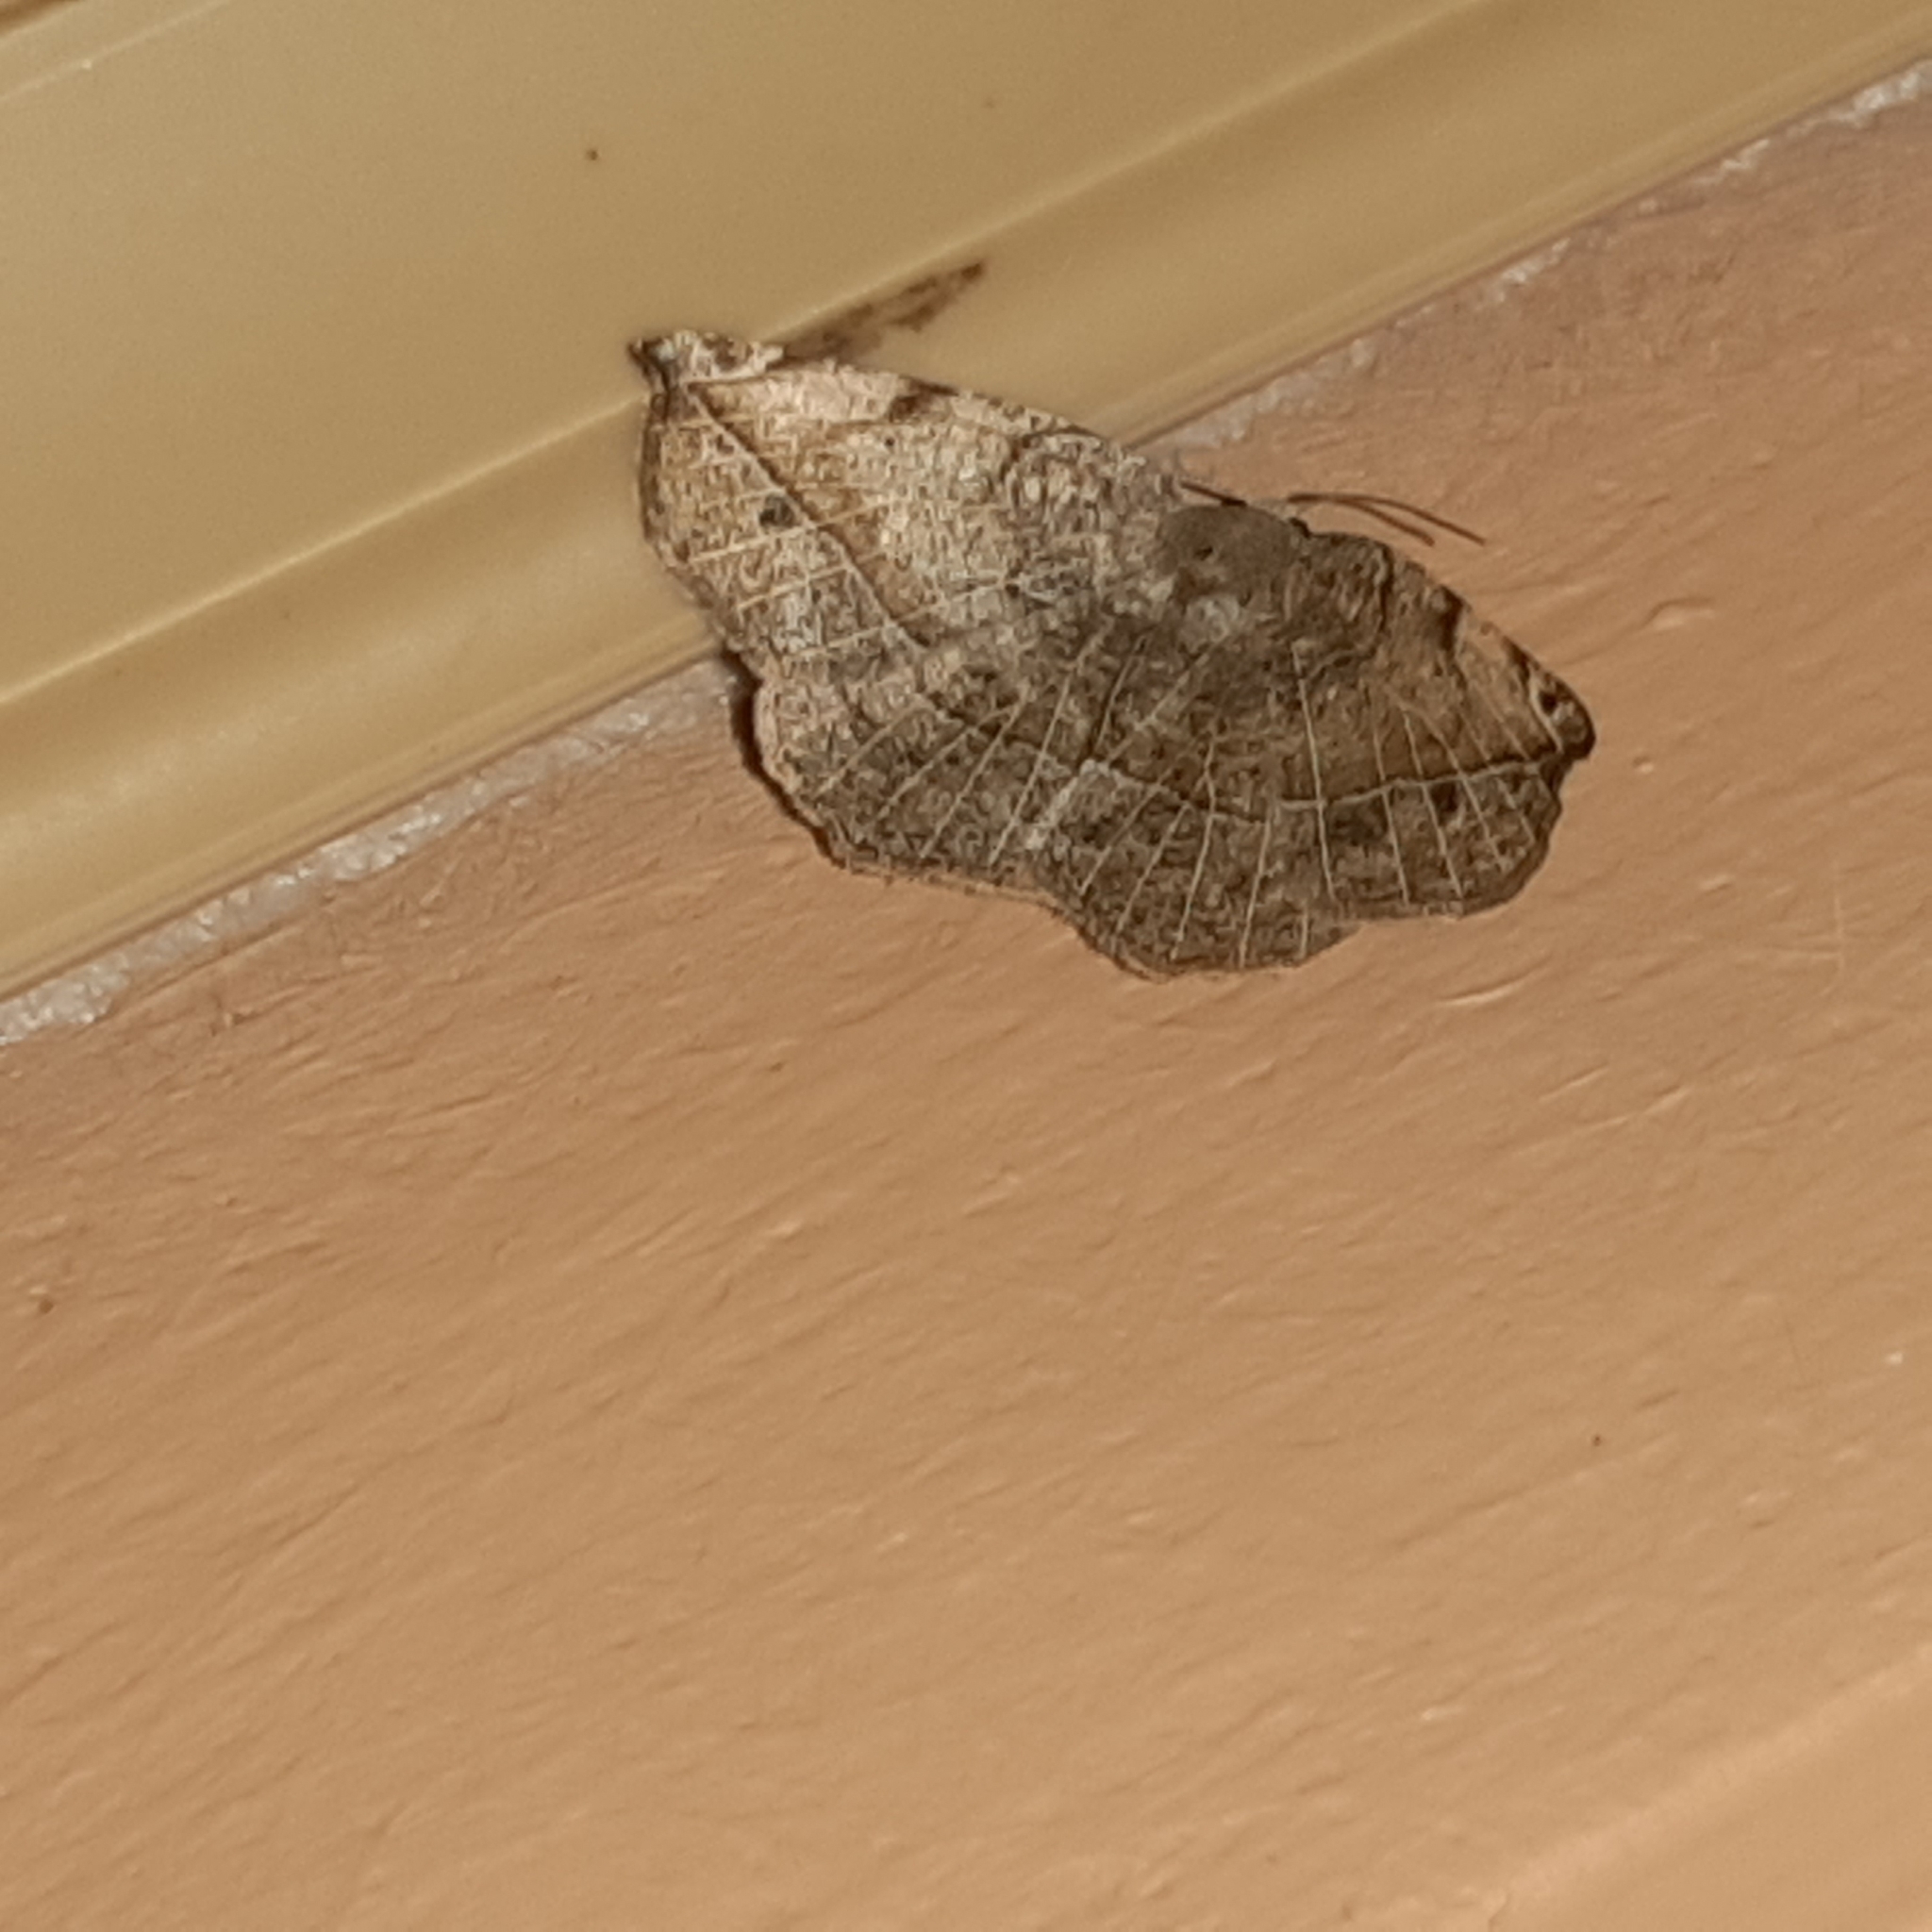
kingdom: Animalia
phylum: Arthropoda
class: Insecta
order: Lepidoptera
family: Geometridae
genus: Eusarca
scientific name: Eusarca cayennaria
